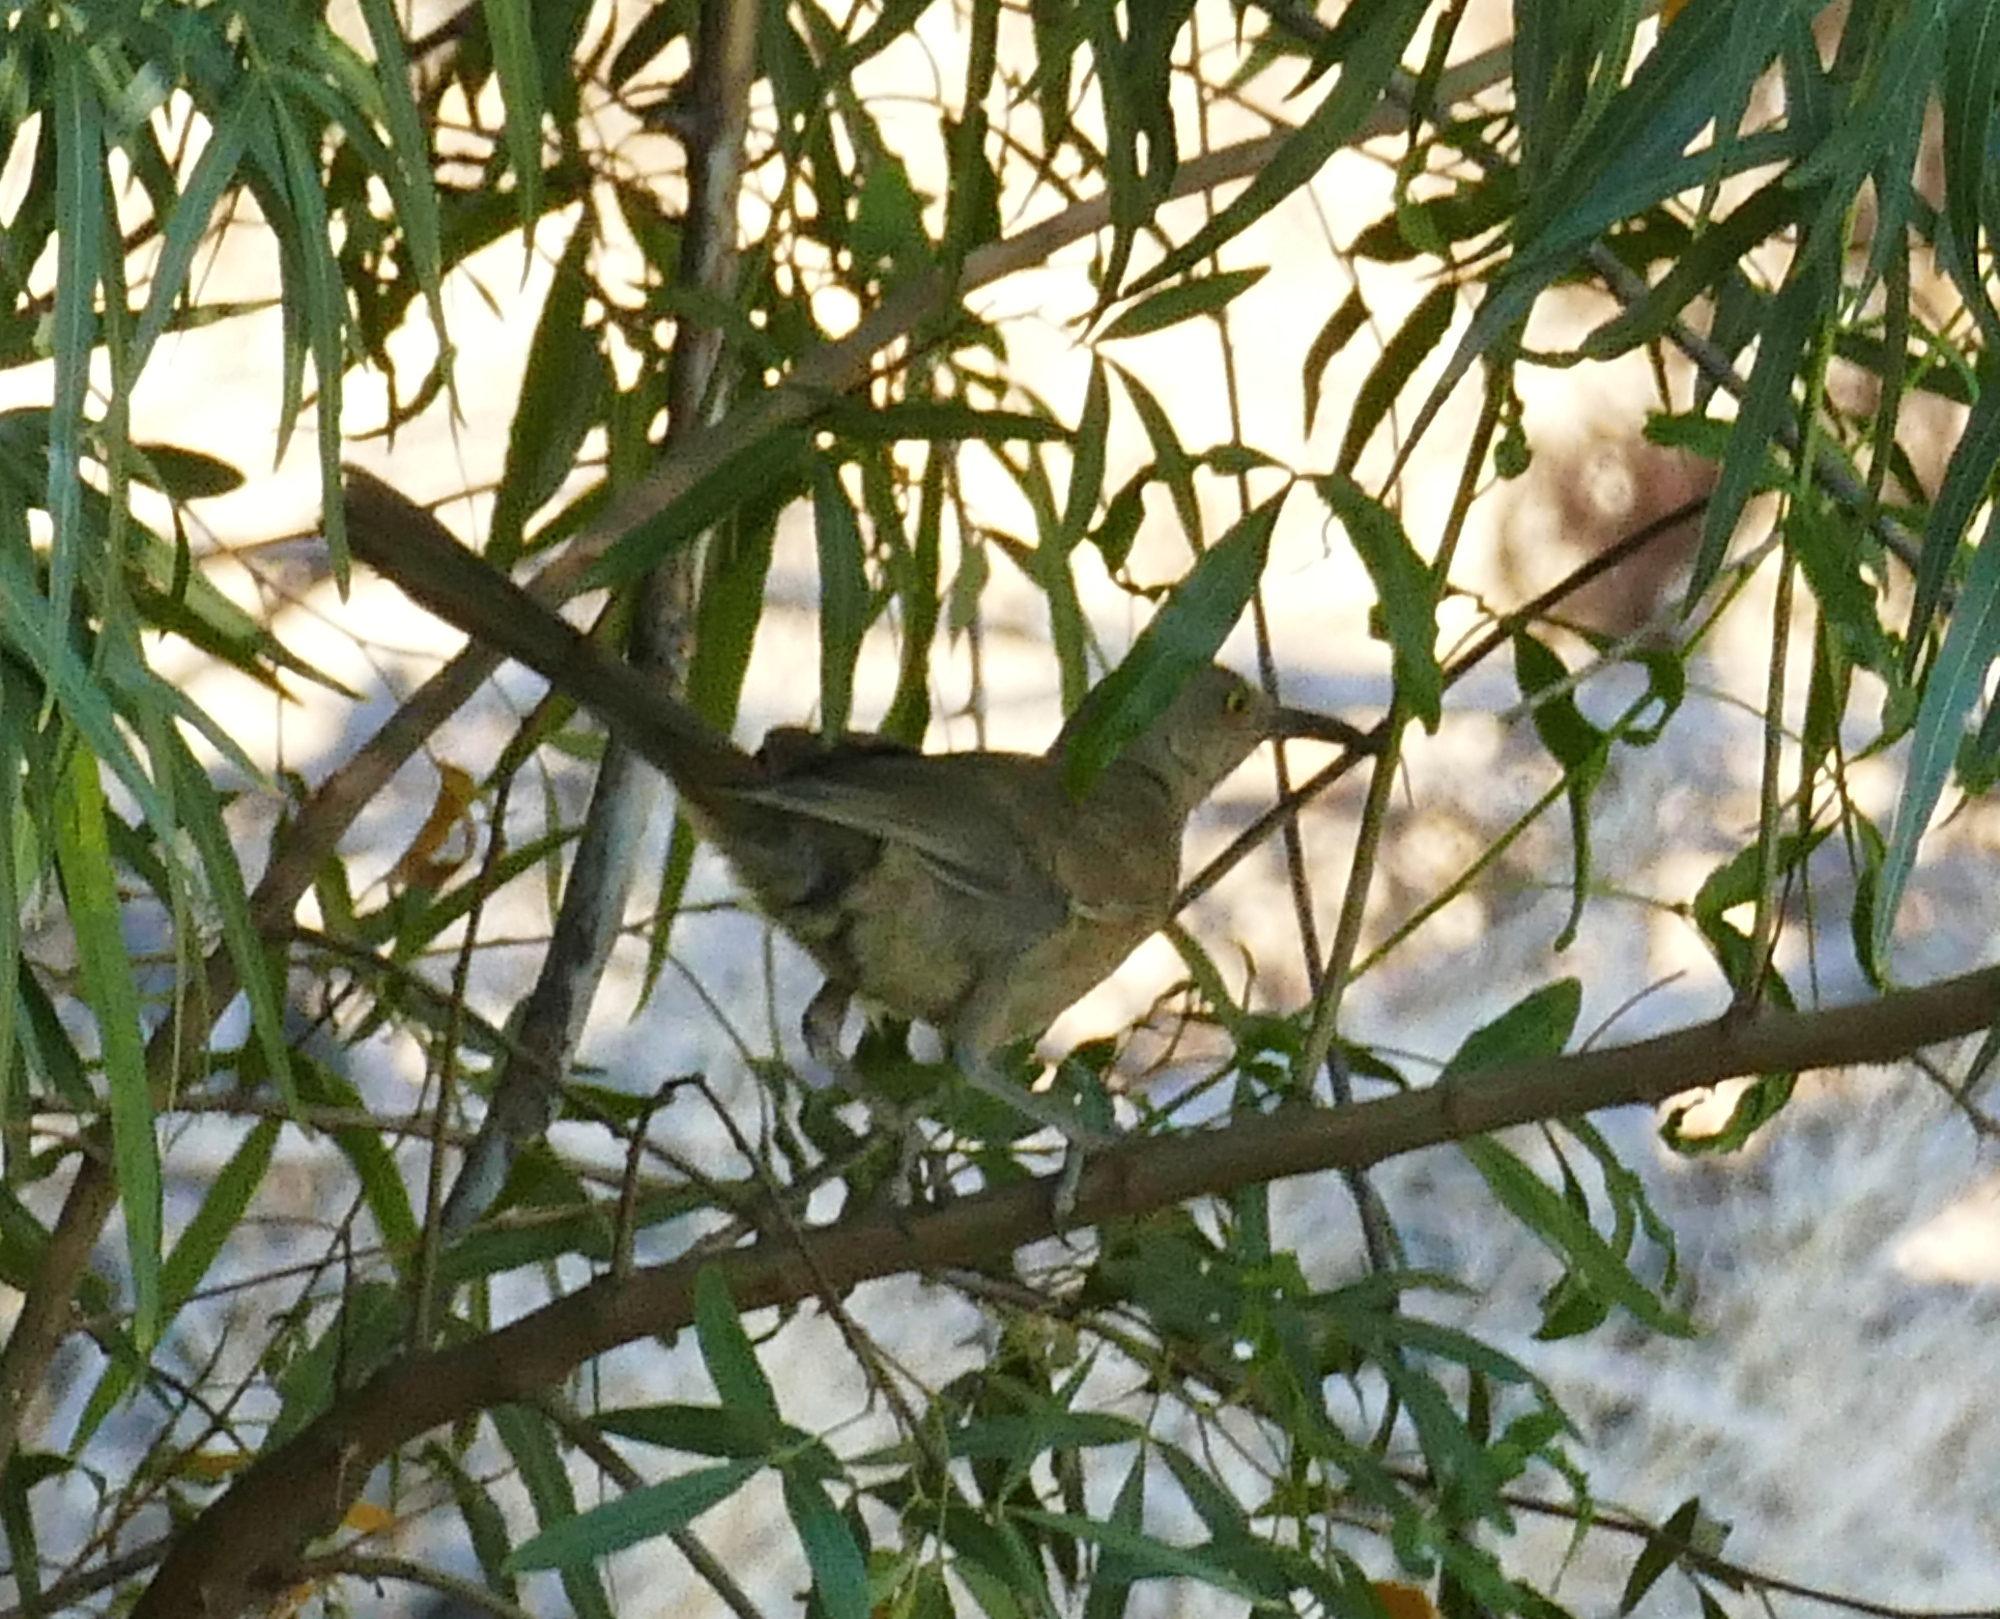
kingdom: Animalia
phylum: Chordata
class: Aves
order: Passeriformes
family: Mimidae
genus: Toxostoma
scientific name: Toxostoma curvirostre
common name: Curve-billed thrasher
